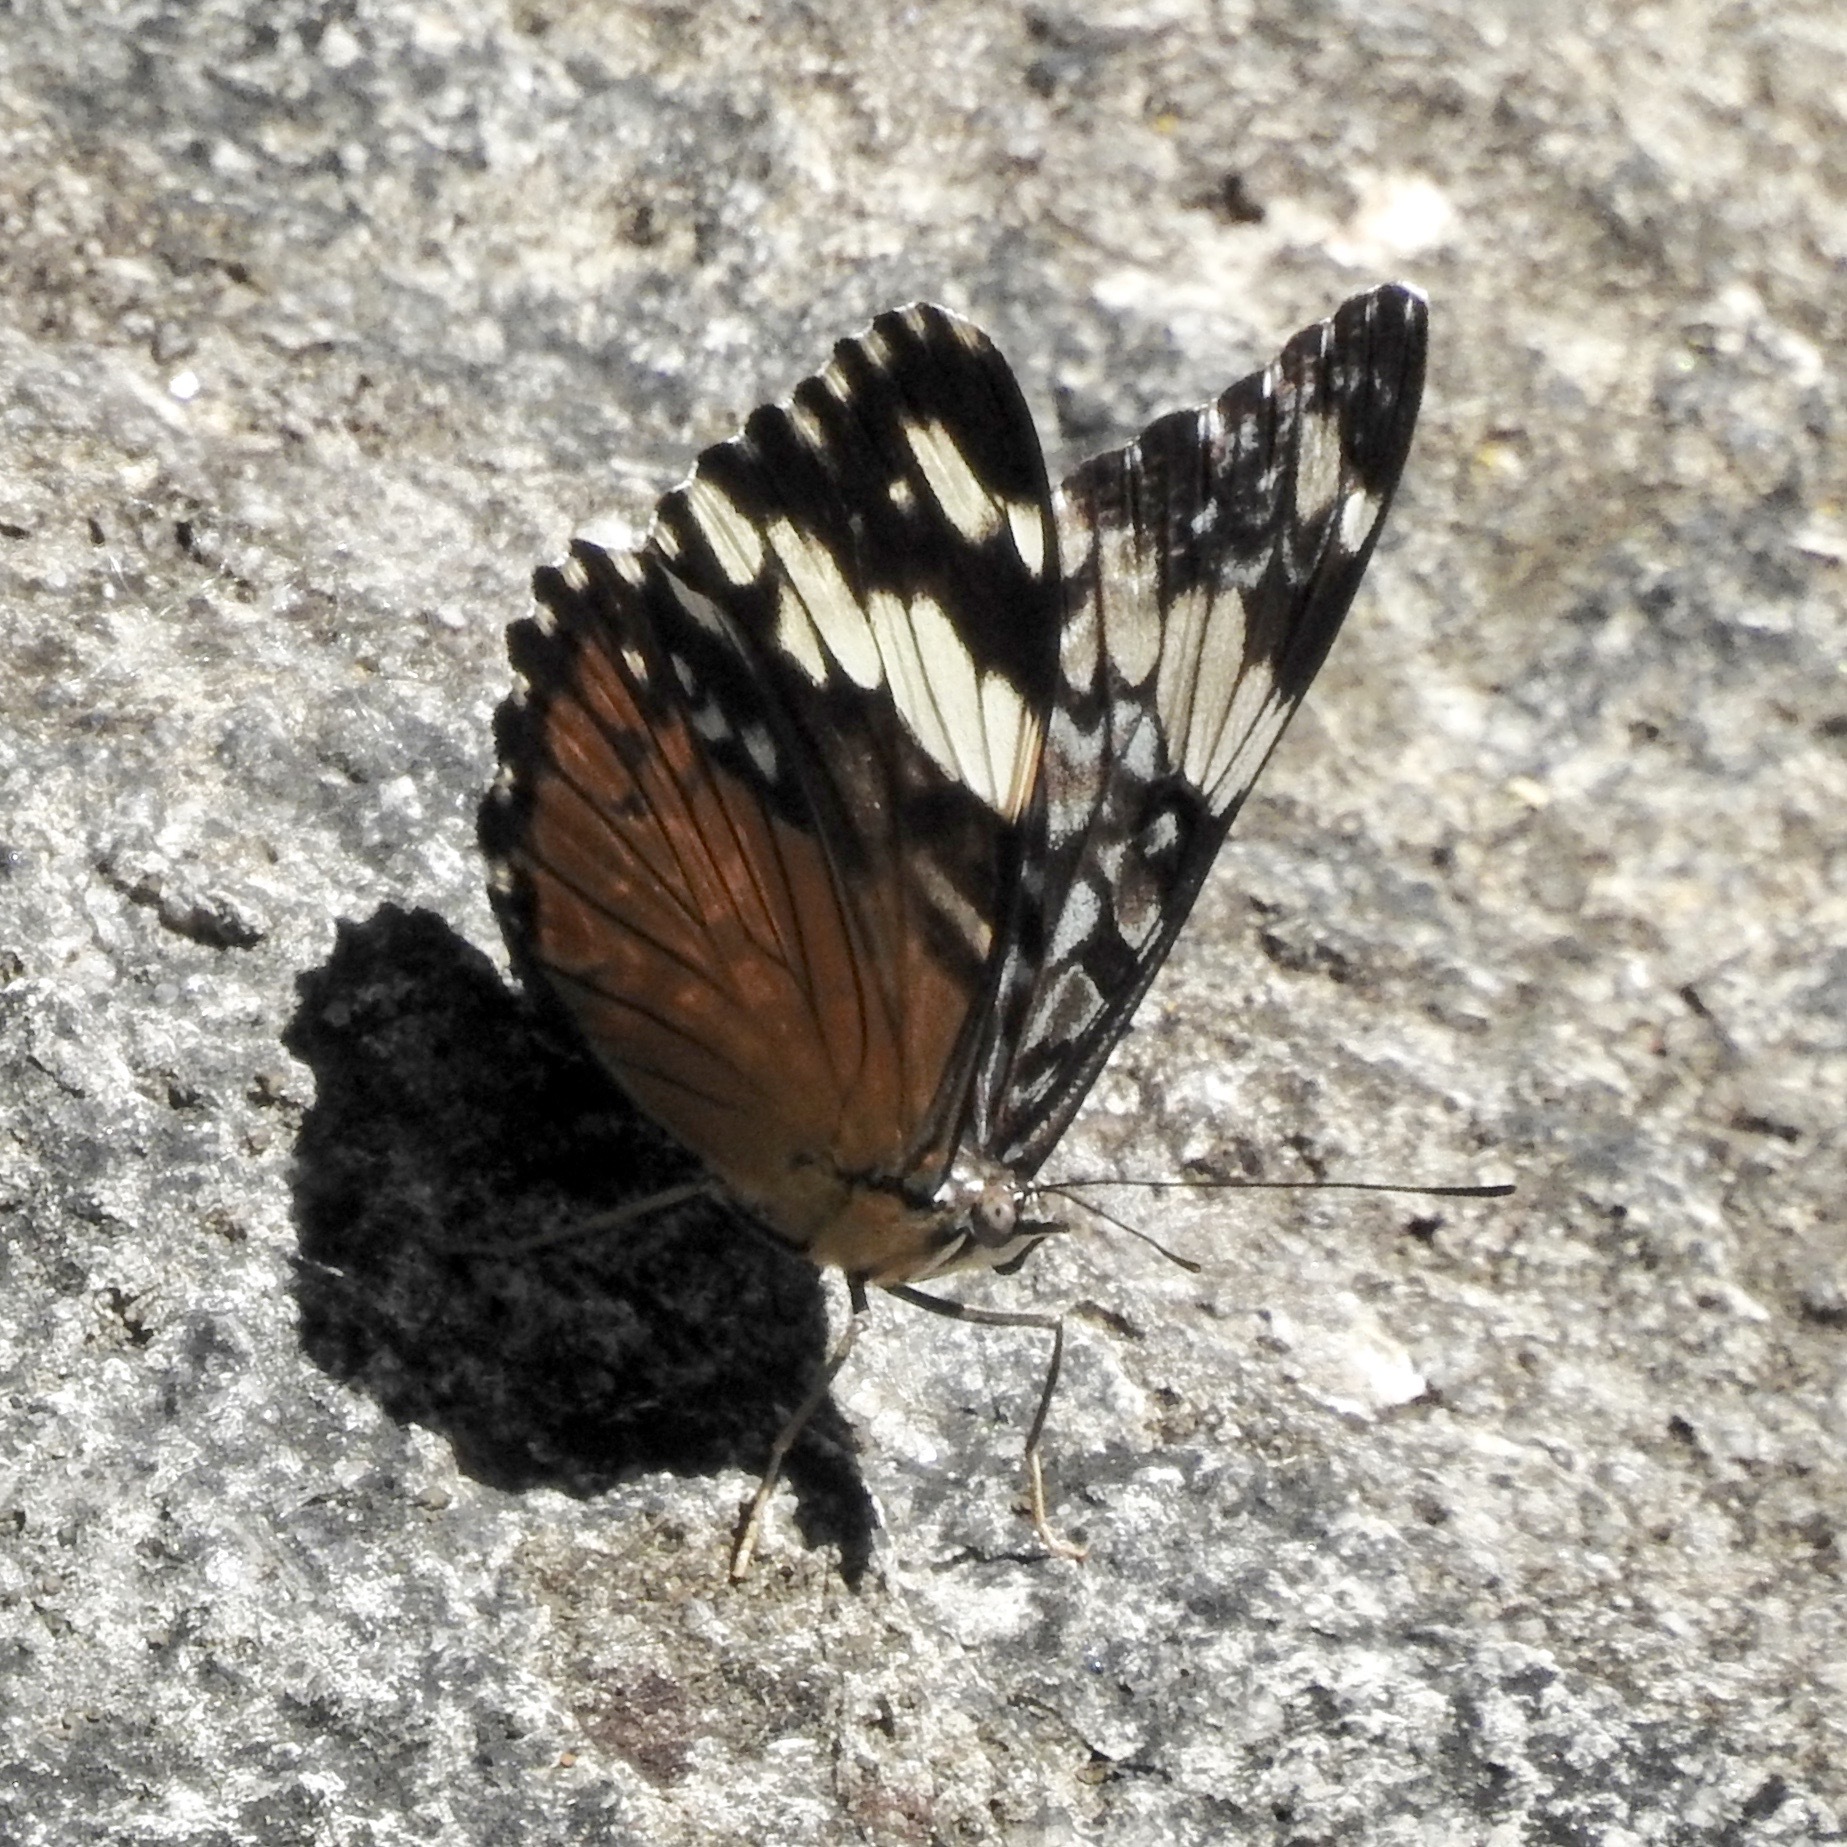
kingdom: Animalia
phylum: Arthropoda
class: Insecta
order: Lepidoptera
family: Nymphalidae
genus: Hamadryas
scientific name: Hamadryas amphinome
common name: Red cracker
